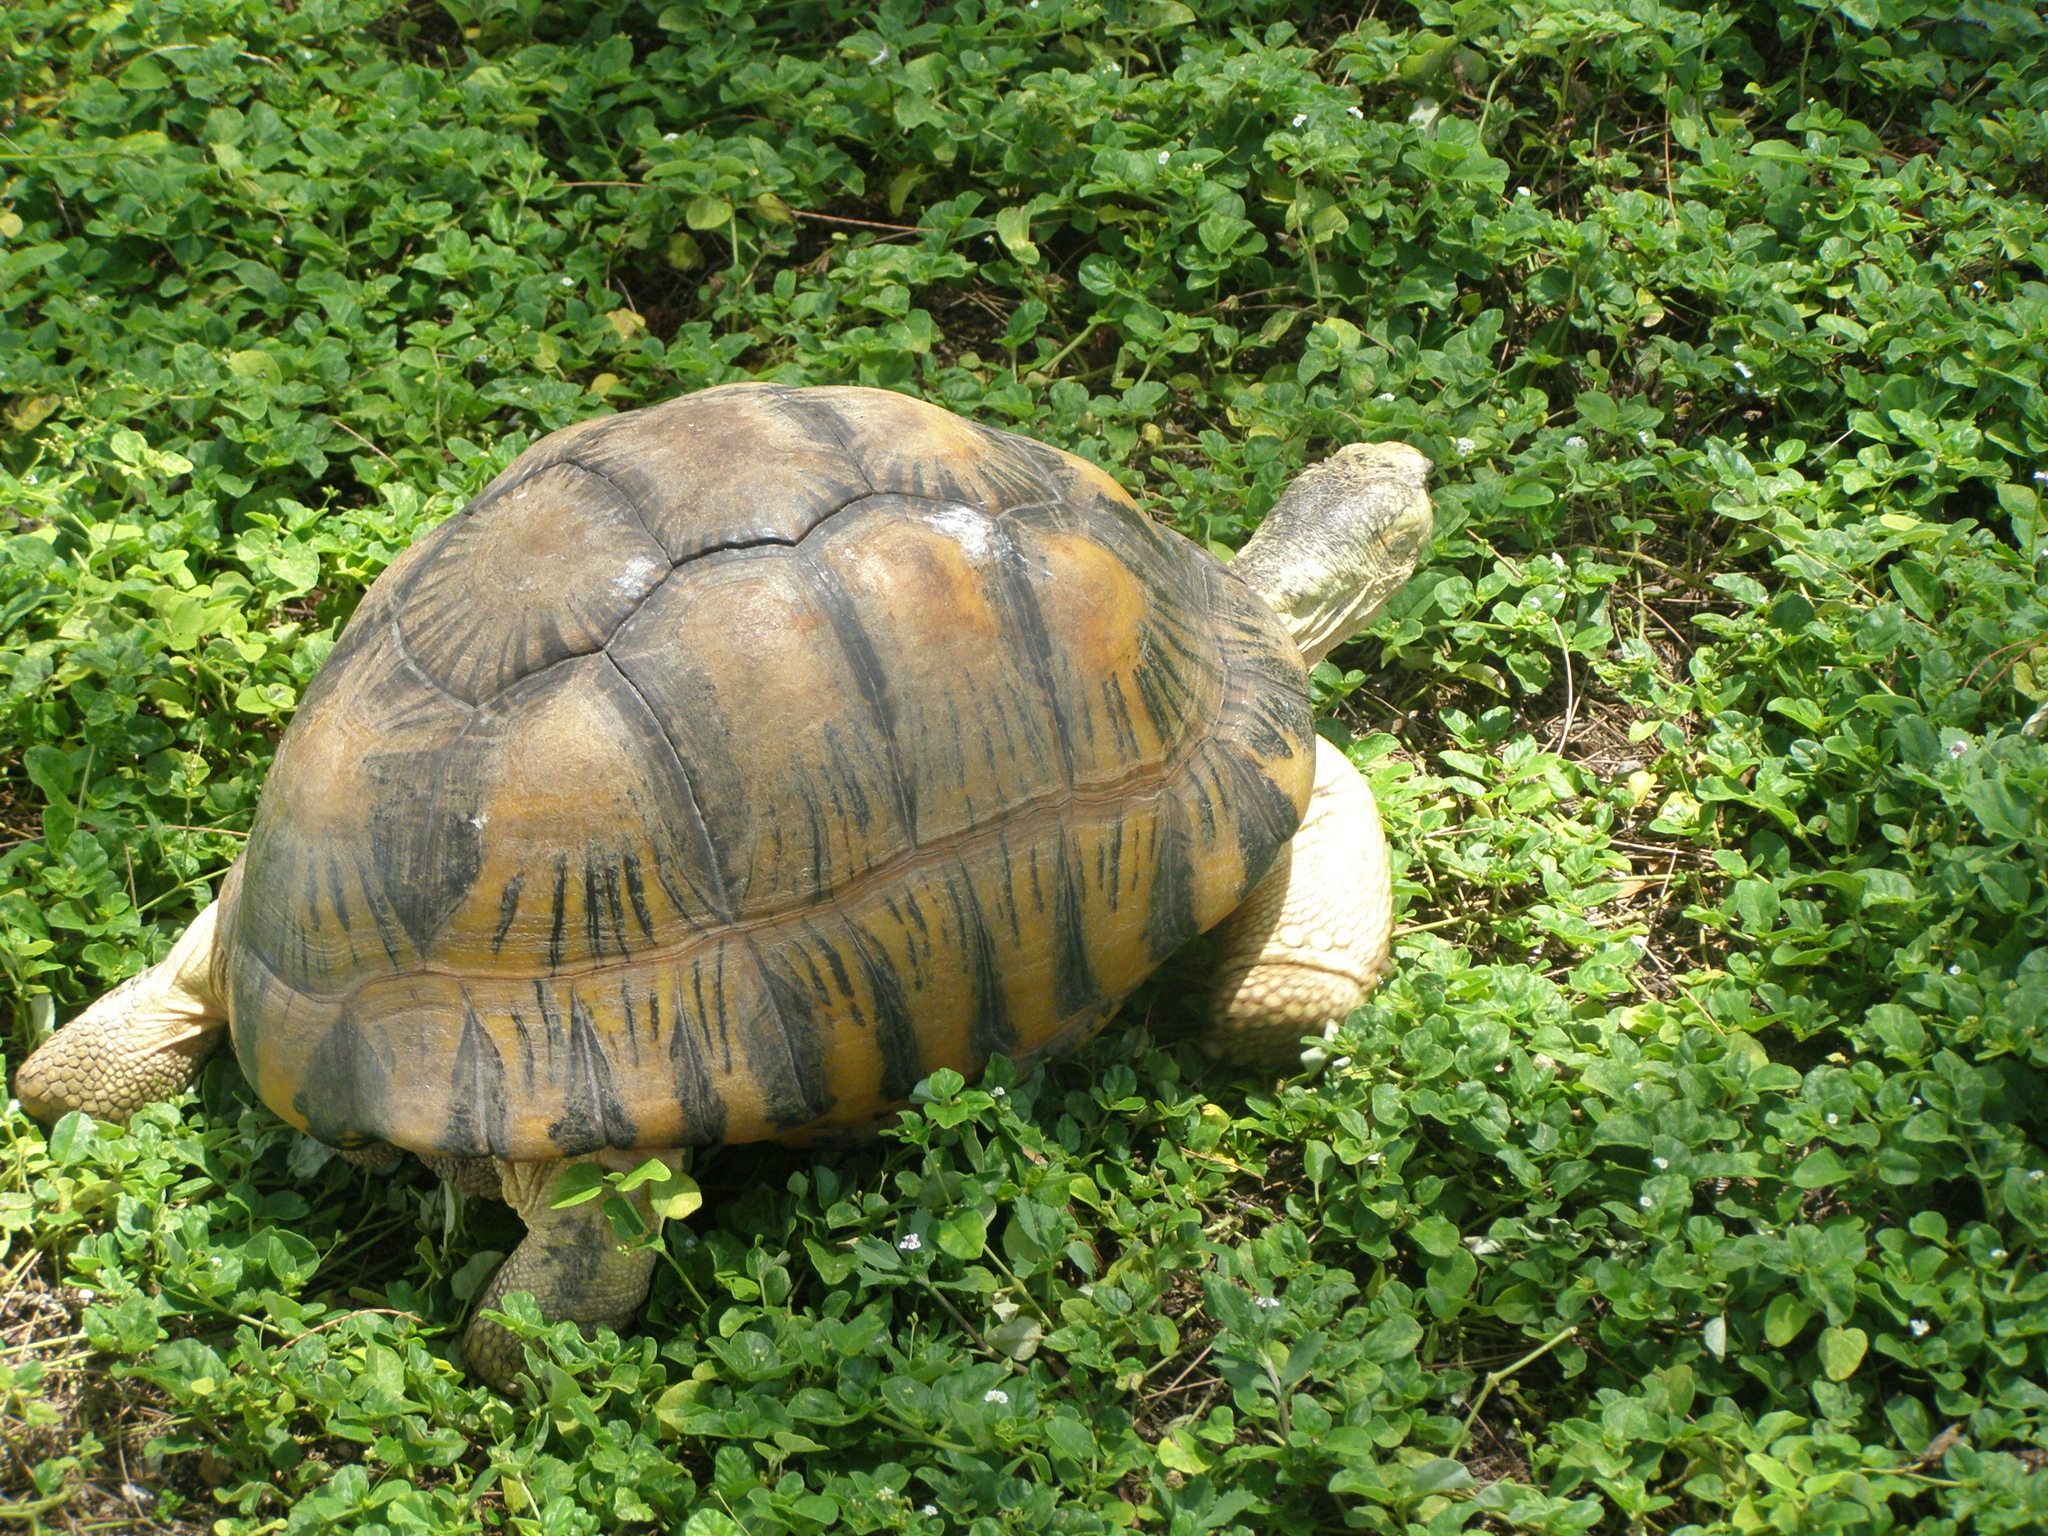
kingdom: Animalia
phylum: Chordata
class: Testudines
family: Testudinidae
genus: Astrochelys
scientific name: Astrochelys radiata
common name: Radiated tortoise
